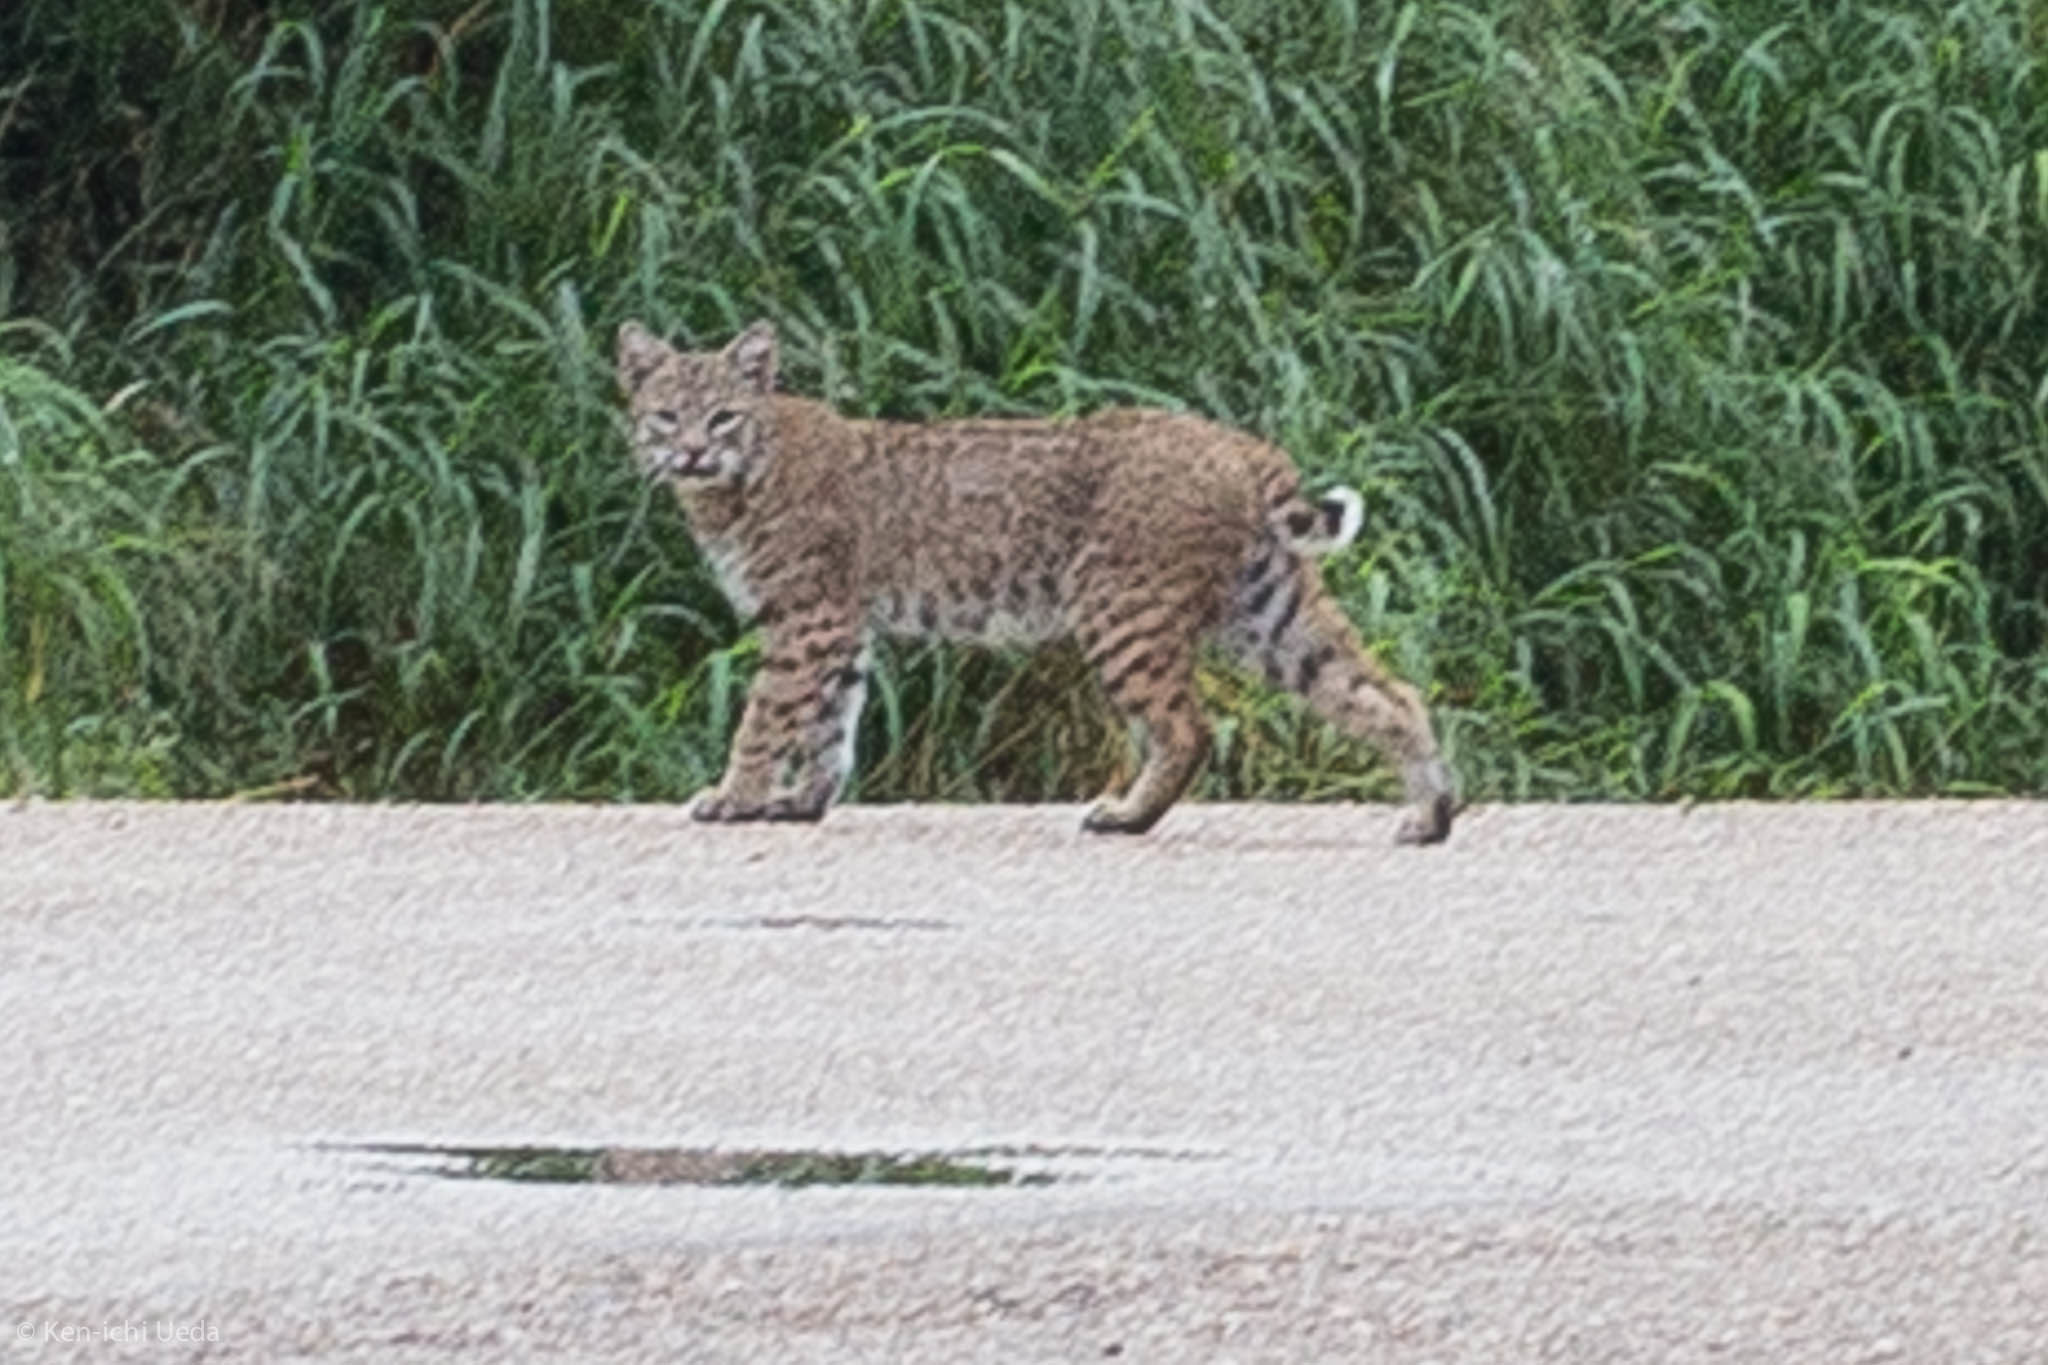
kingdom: Animalia
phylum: Chordata
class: Mammalia
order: Carnivora
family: Felidae
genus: Lynx
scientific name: Lynx rufus
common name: Bobcat
